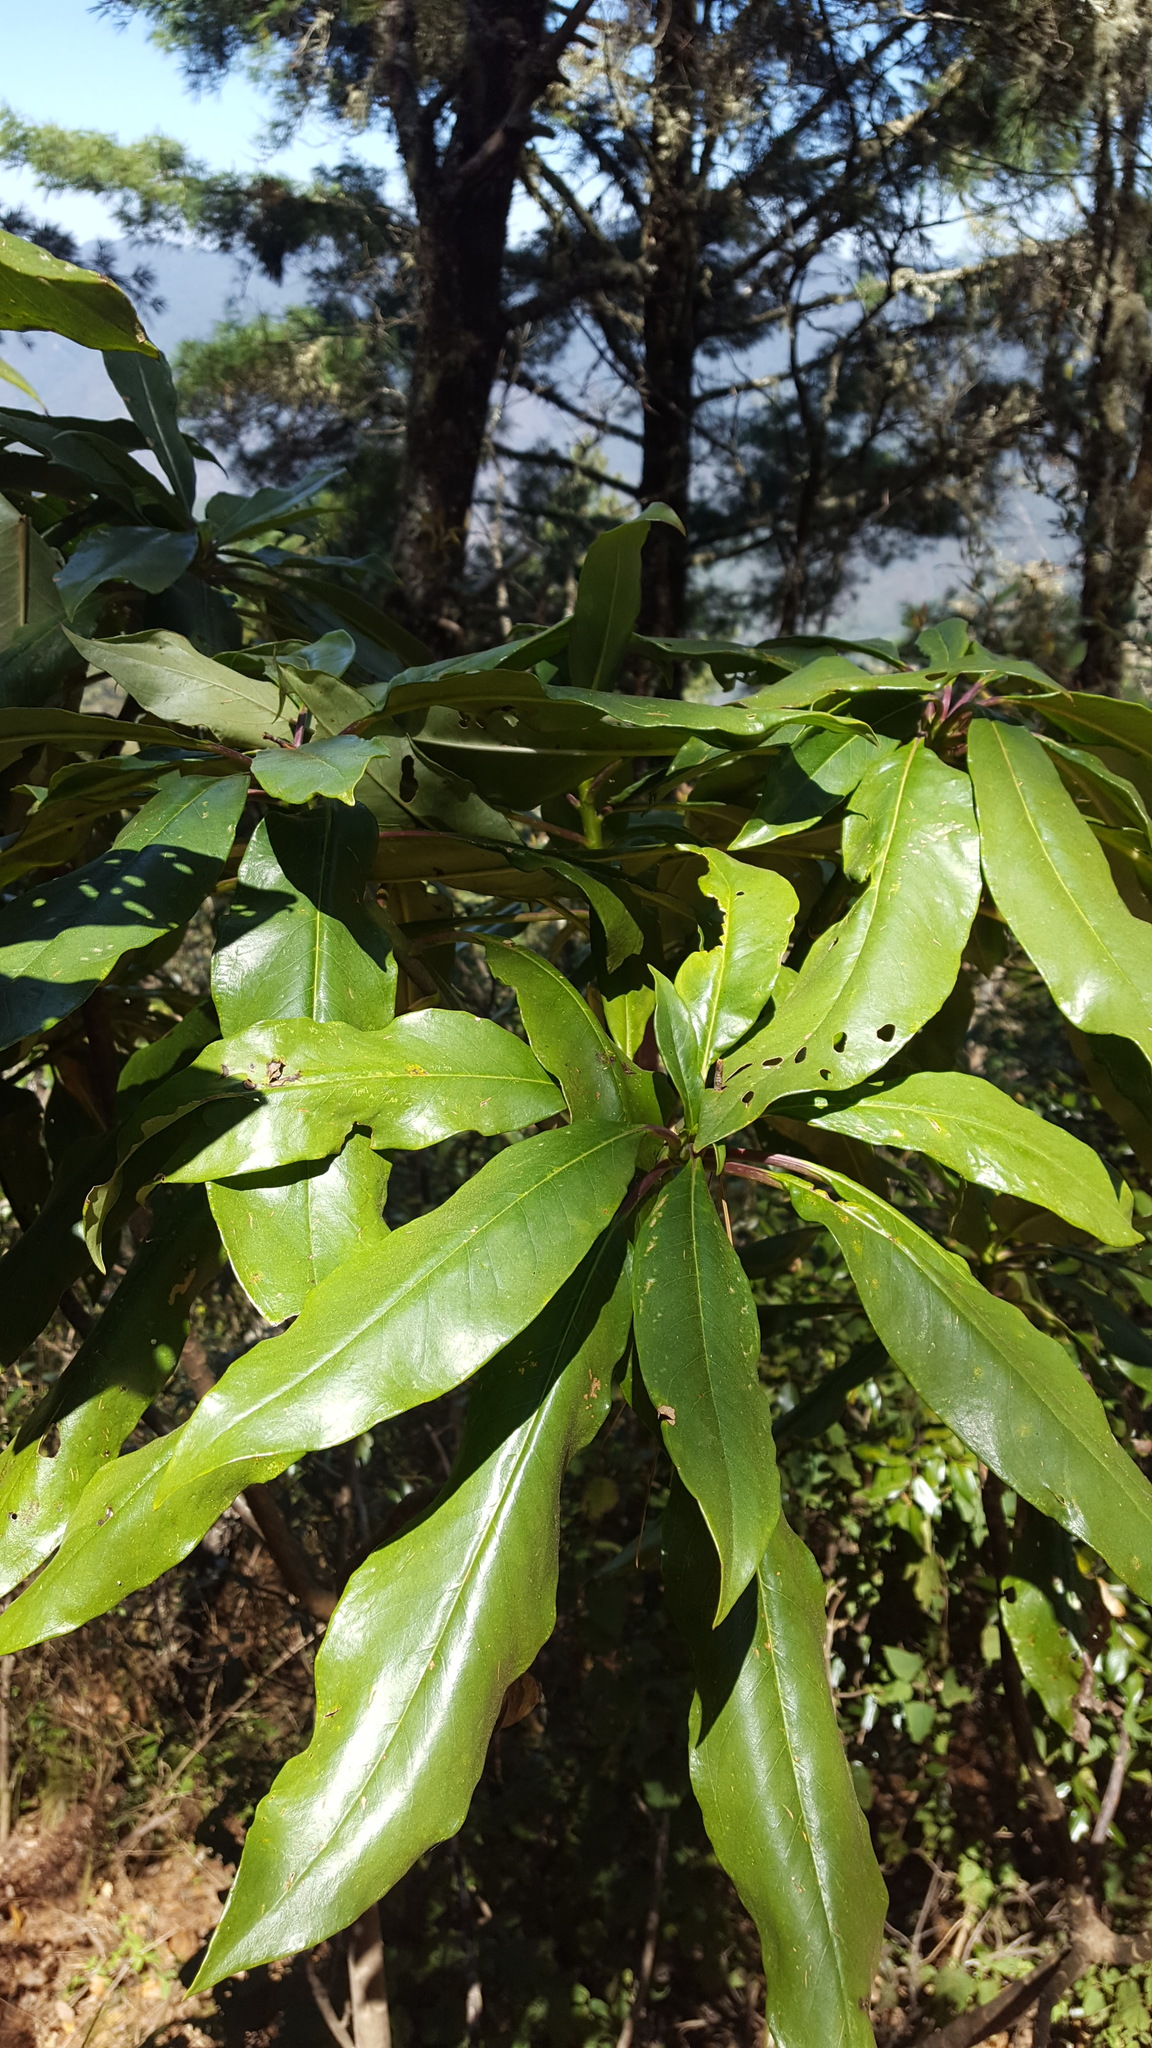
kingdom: Plantae
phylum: Tracheophyta
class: Magnoliopsida
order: Asterales
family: Asteraceae
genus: Telanthophora
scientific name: Telanthophora andrieuxii
